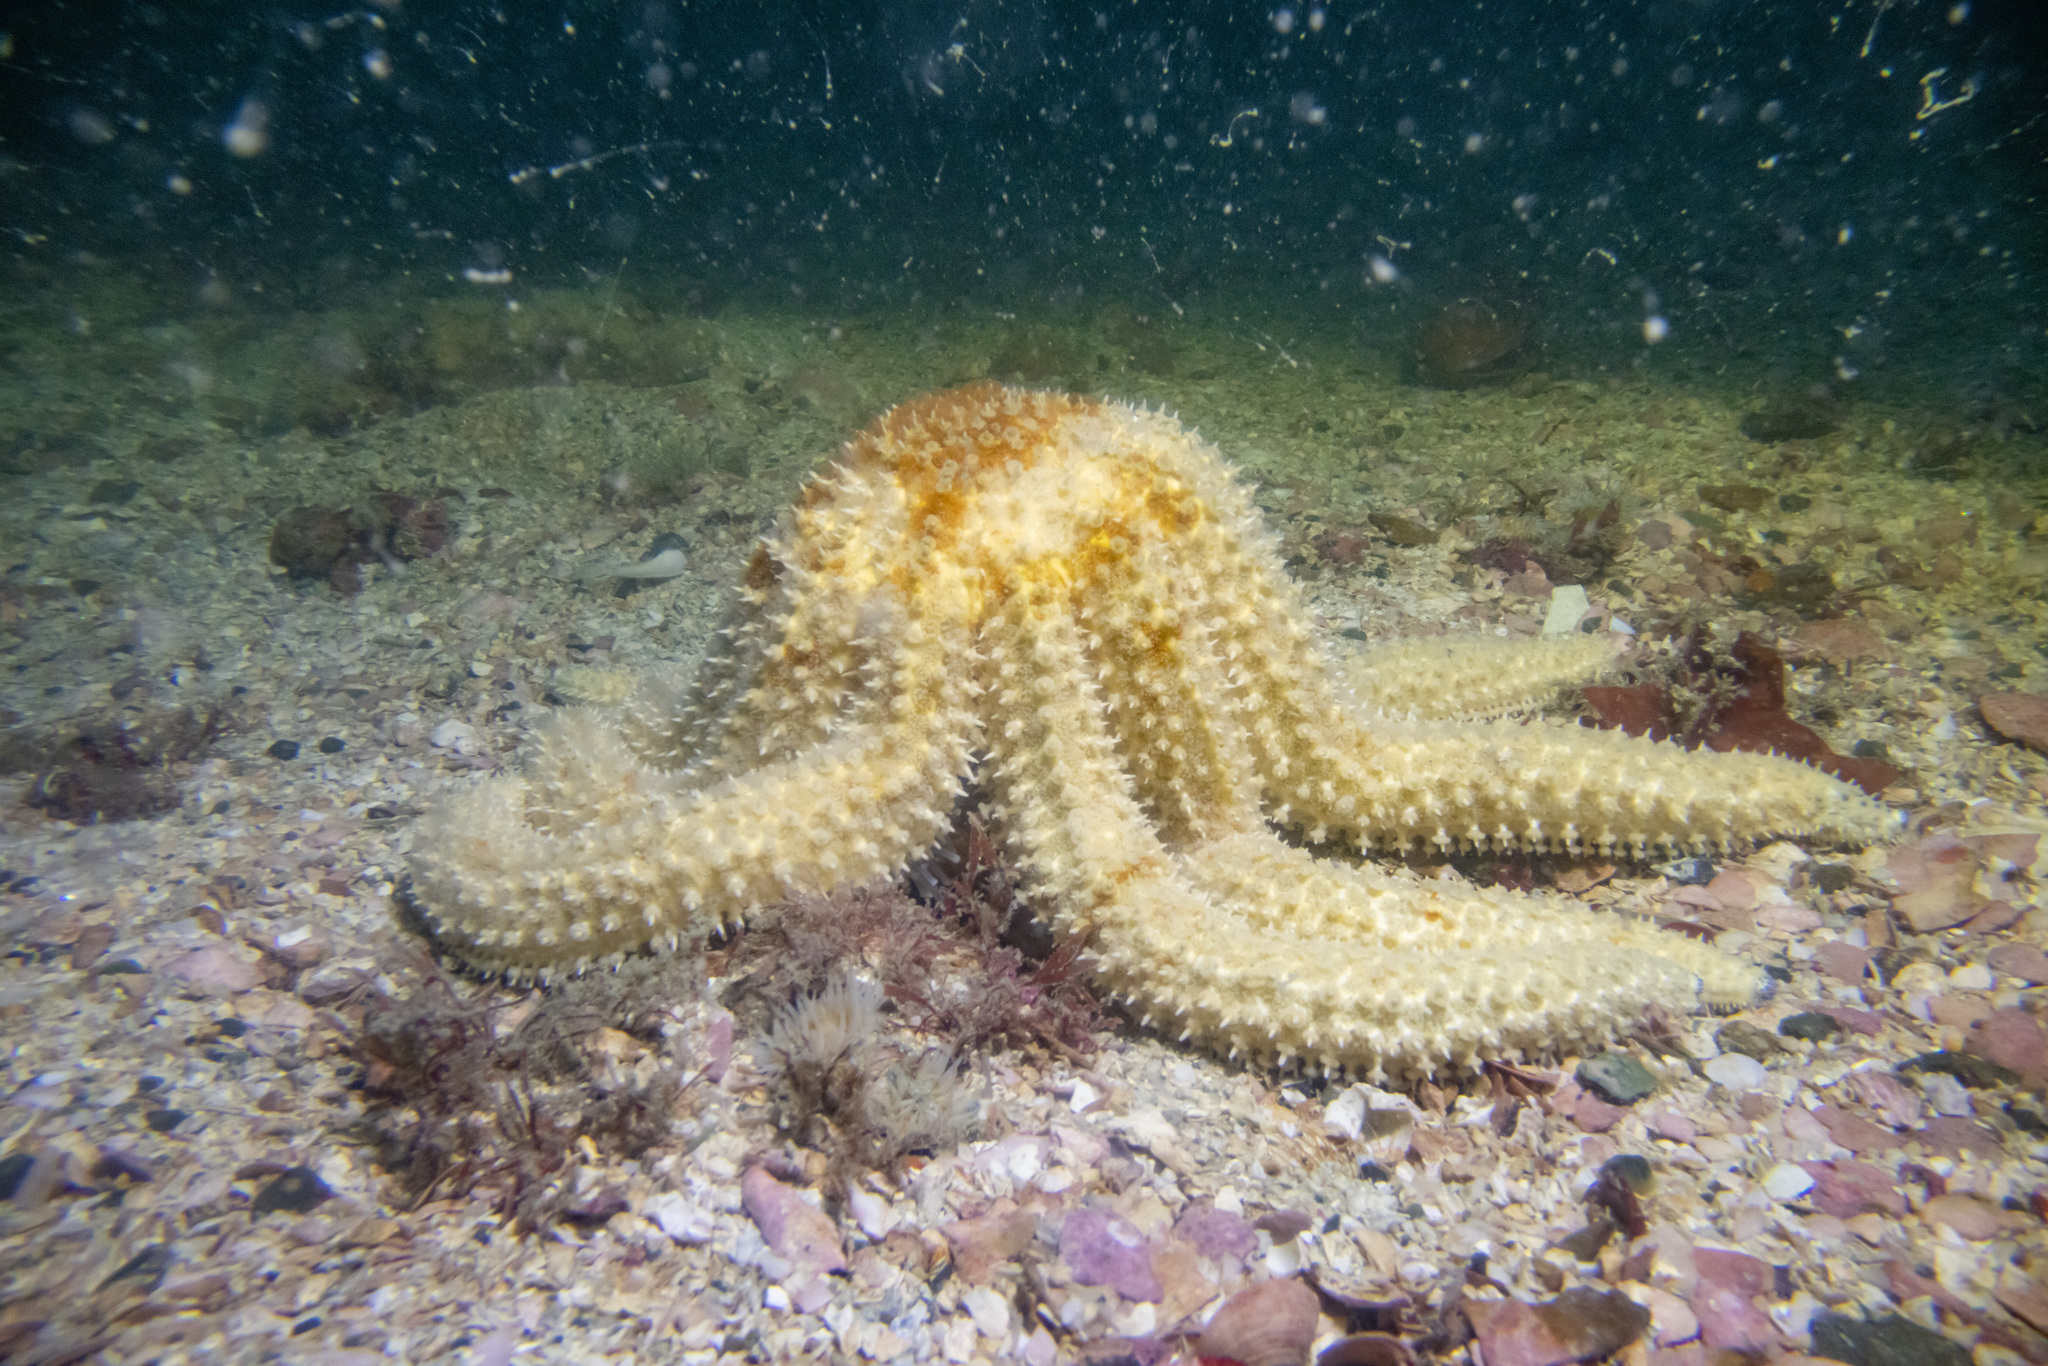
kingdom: Animalia
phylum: Echinodermata
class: Asteroidea
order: Forcipulatida
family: Asteriidae
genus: Coscinasterias
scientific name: Coscinasterias muricata
